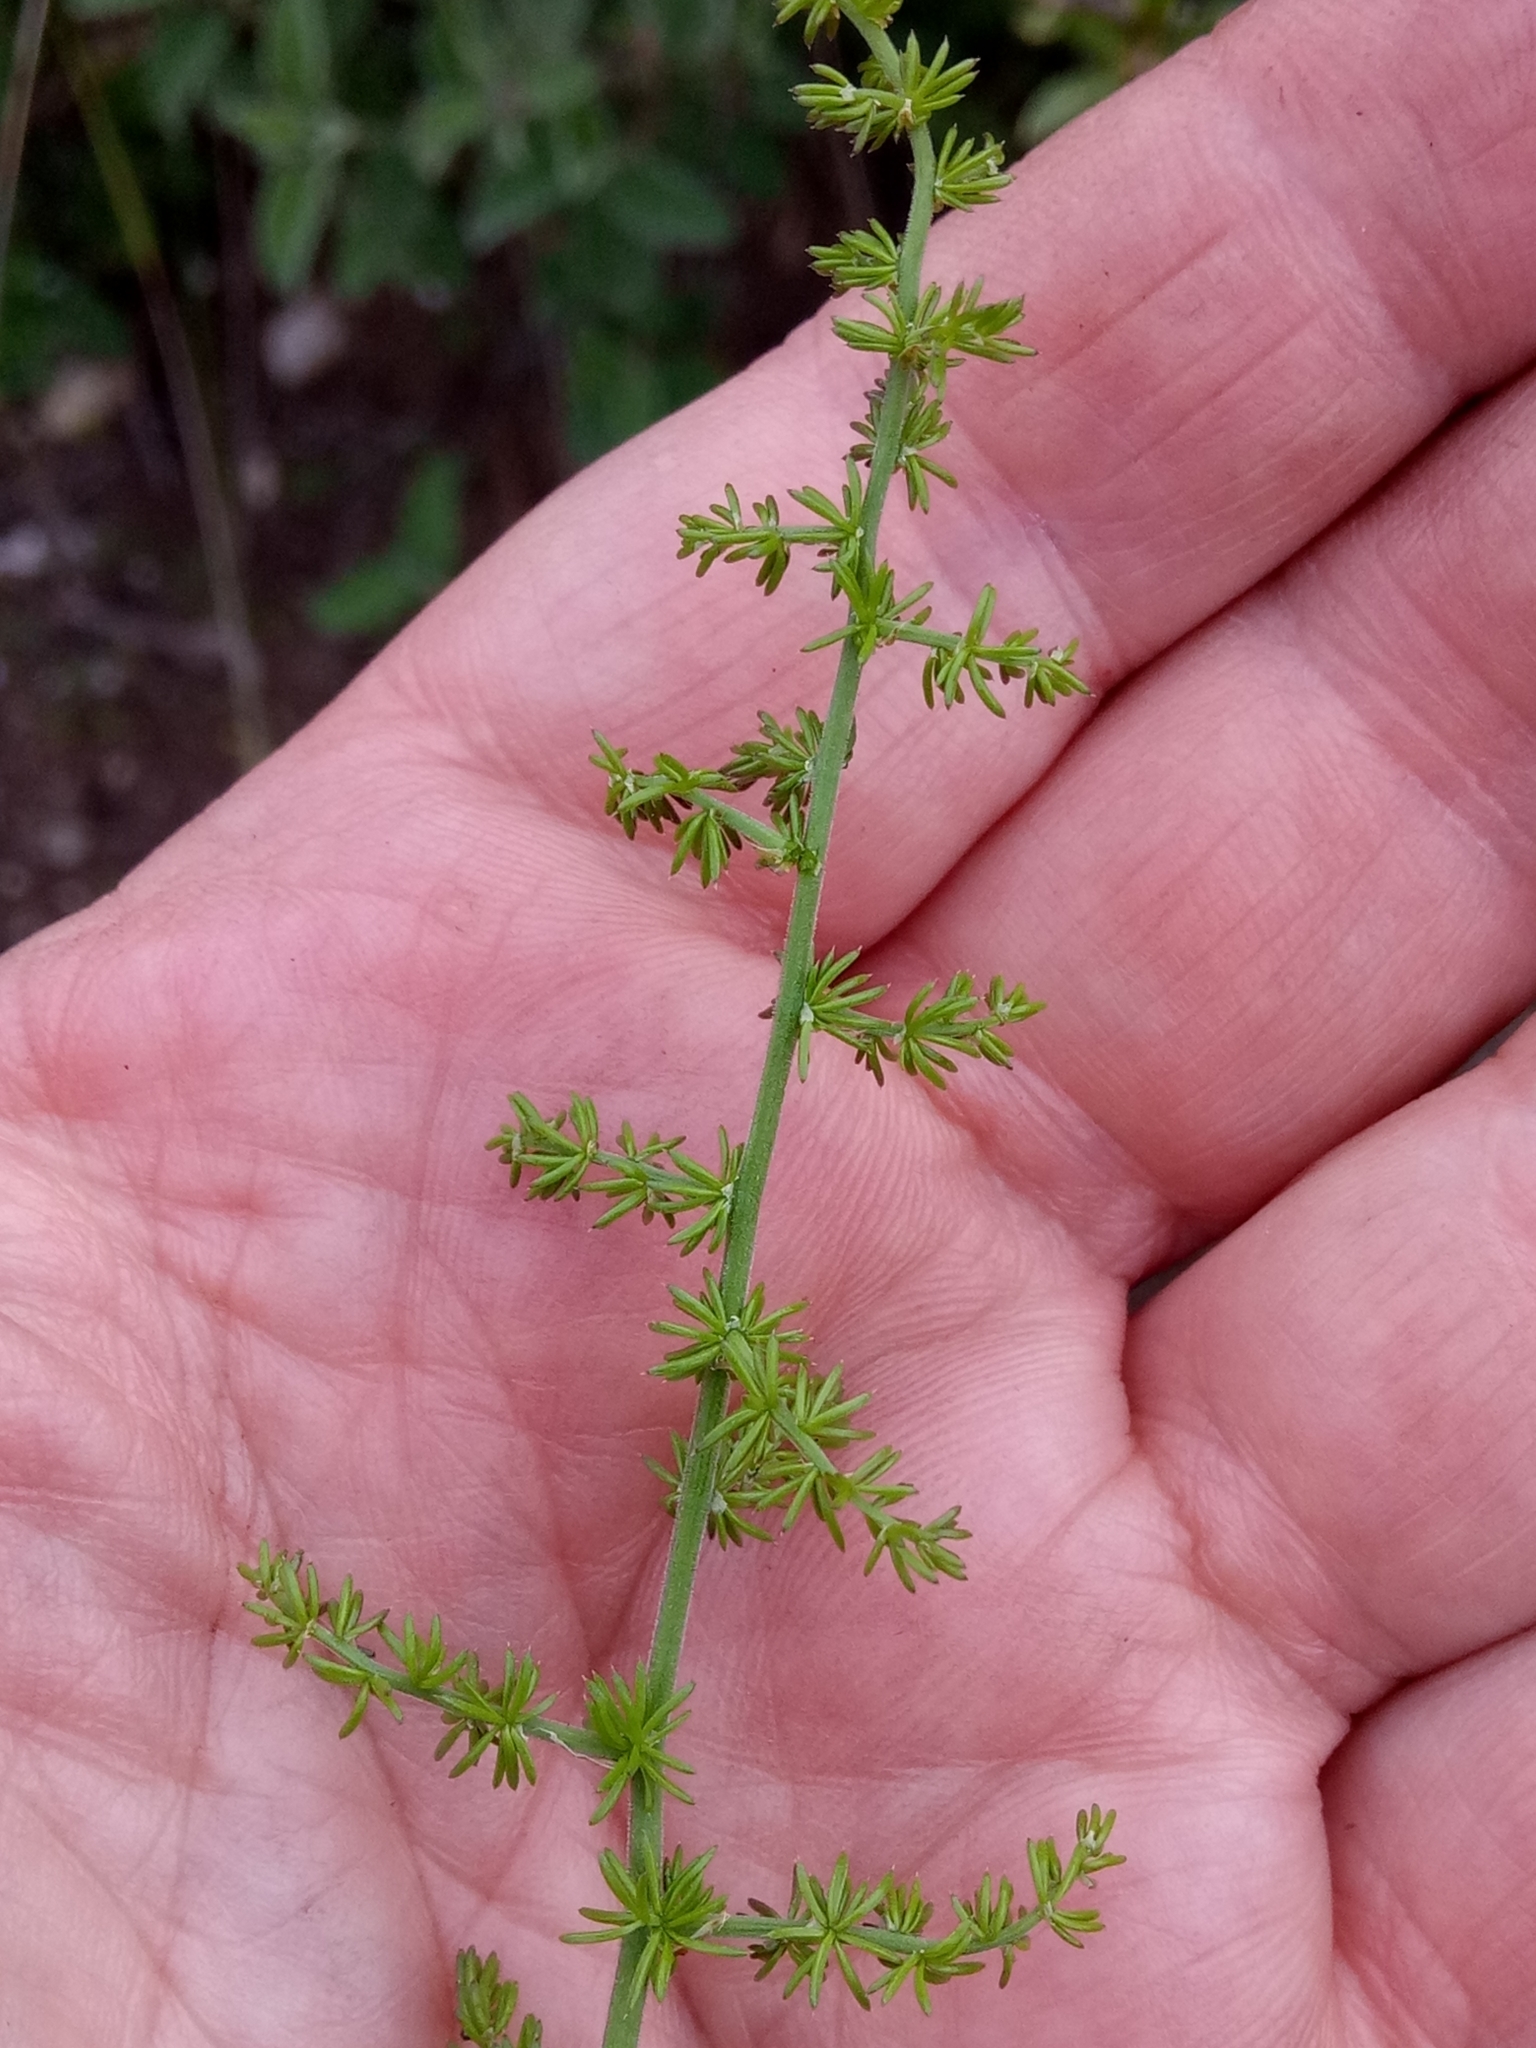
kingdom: Plantae
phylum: Tracheophyta
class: Liliopsida
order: Asparagales
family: Asparagaceae
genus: Asparagus
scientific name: Asparagus acutifolius
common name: Wild asparagus
